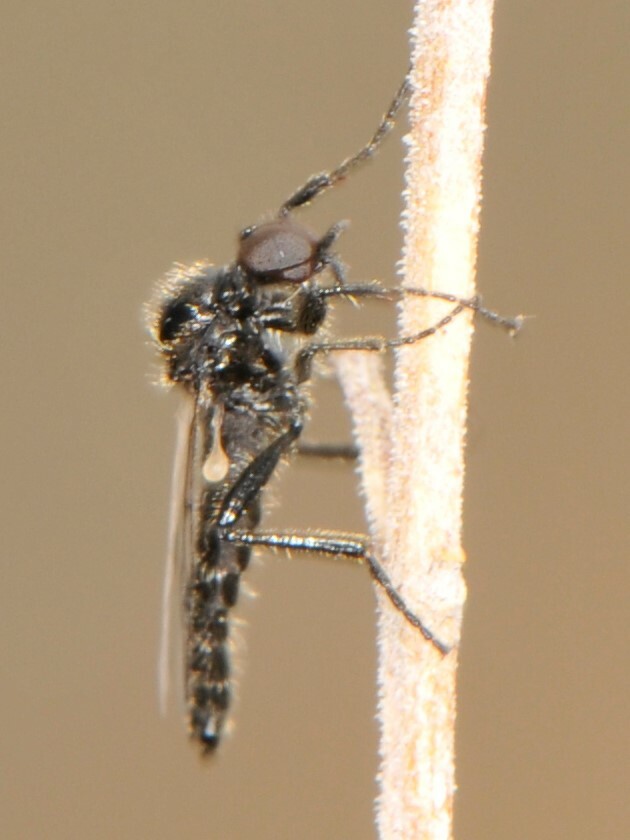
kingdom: Animalia
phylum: Arthropoda
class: Insecta
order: Diptera
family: Bibionidae
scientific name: Bibionidae
